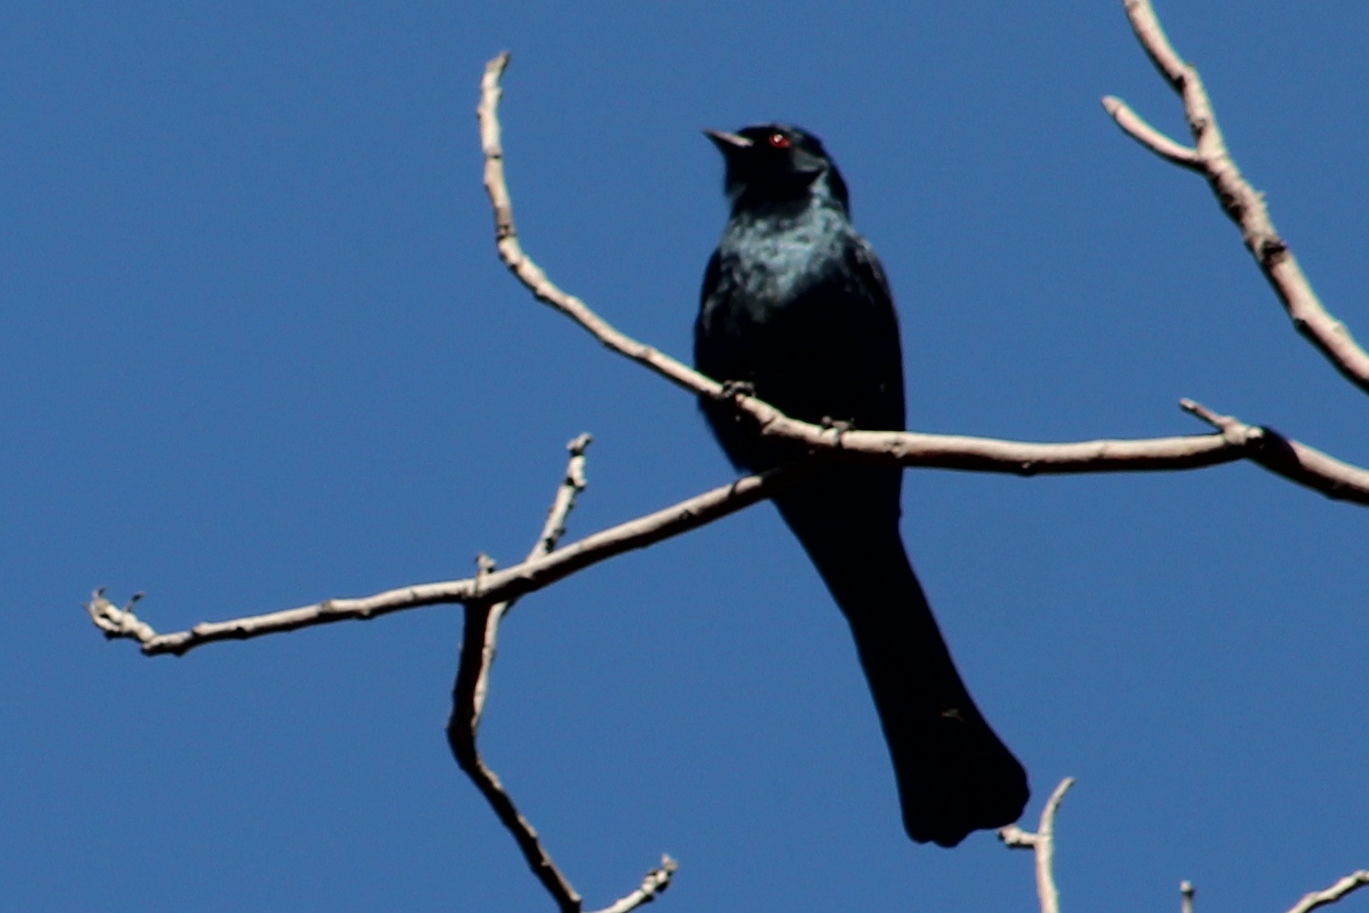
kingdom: Animalia
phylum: Chordata
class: Aves
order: Passeriformes
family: Ptilogonatidae
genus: Phainopepla
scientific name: Phainopepla nitens
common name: Phainopepla
